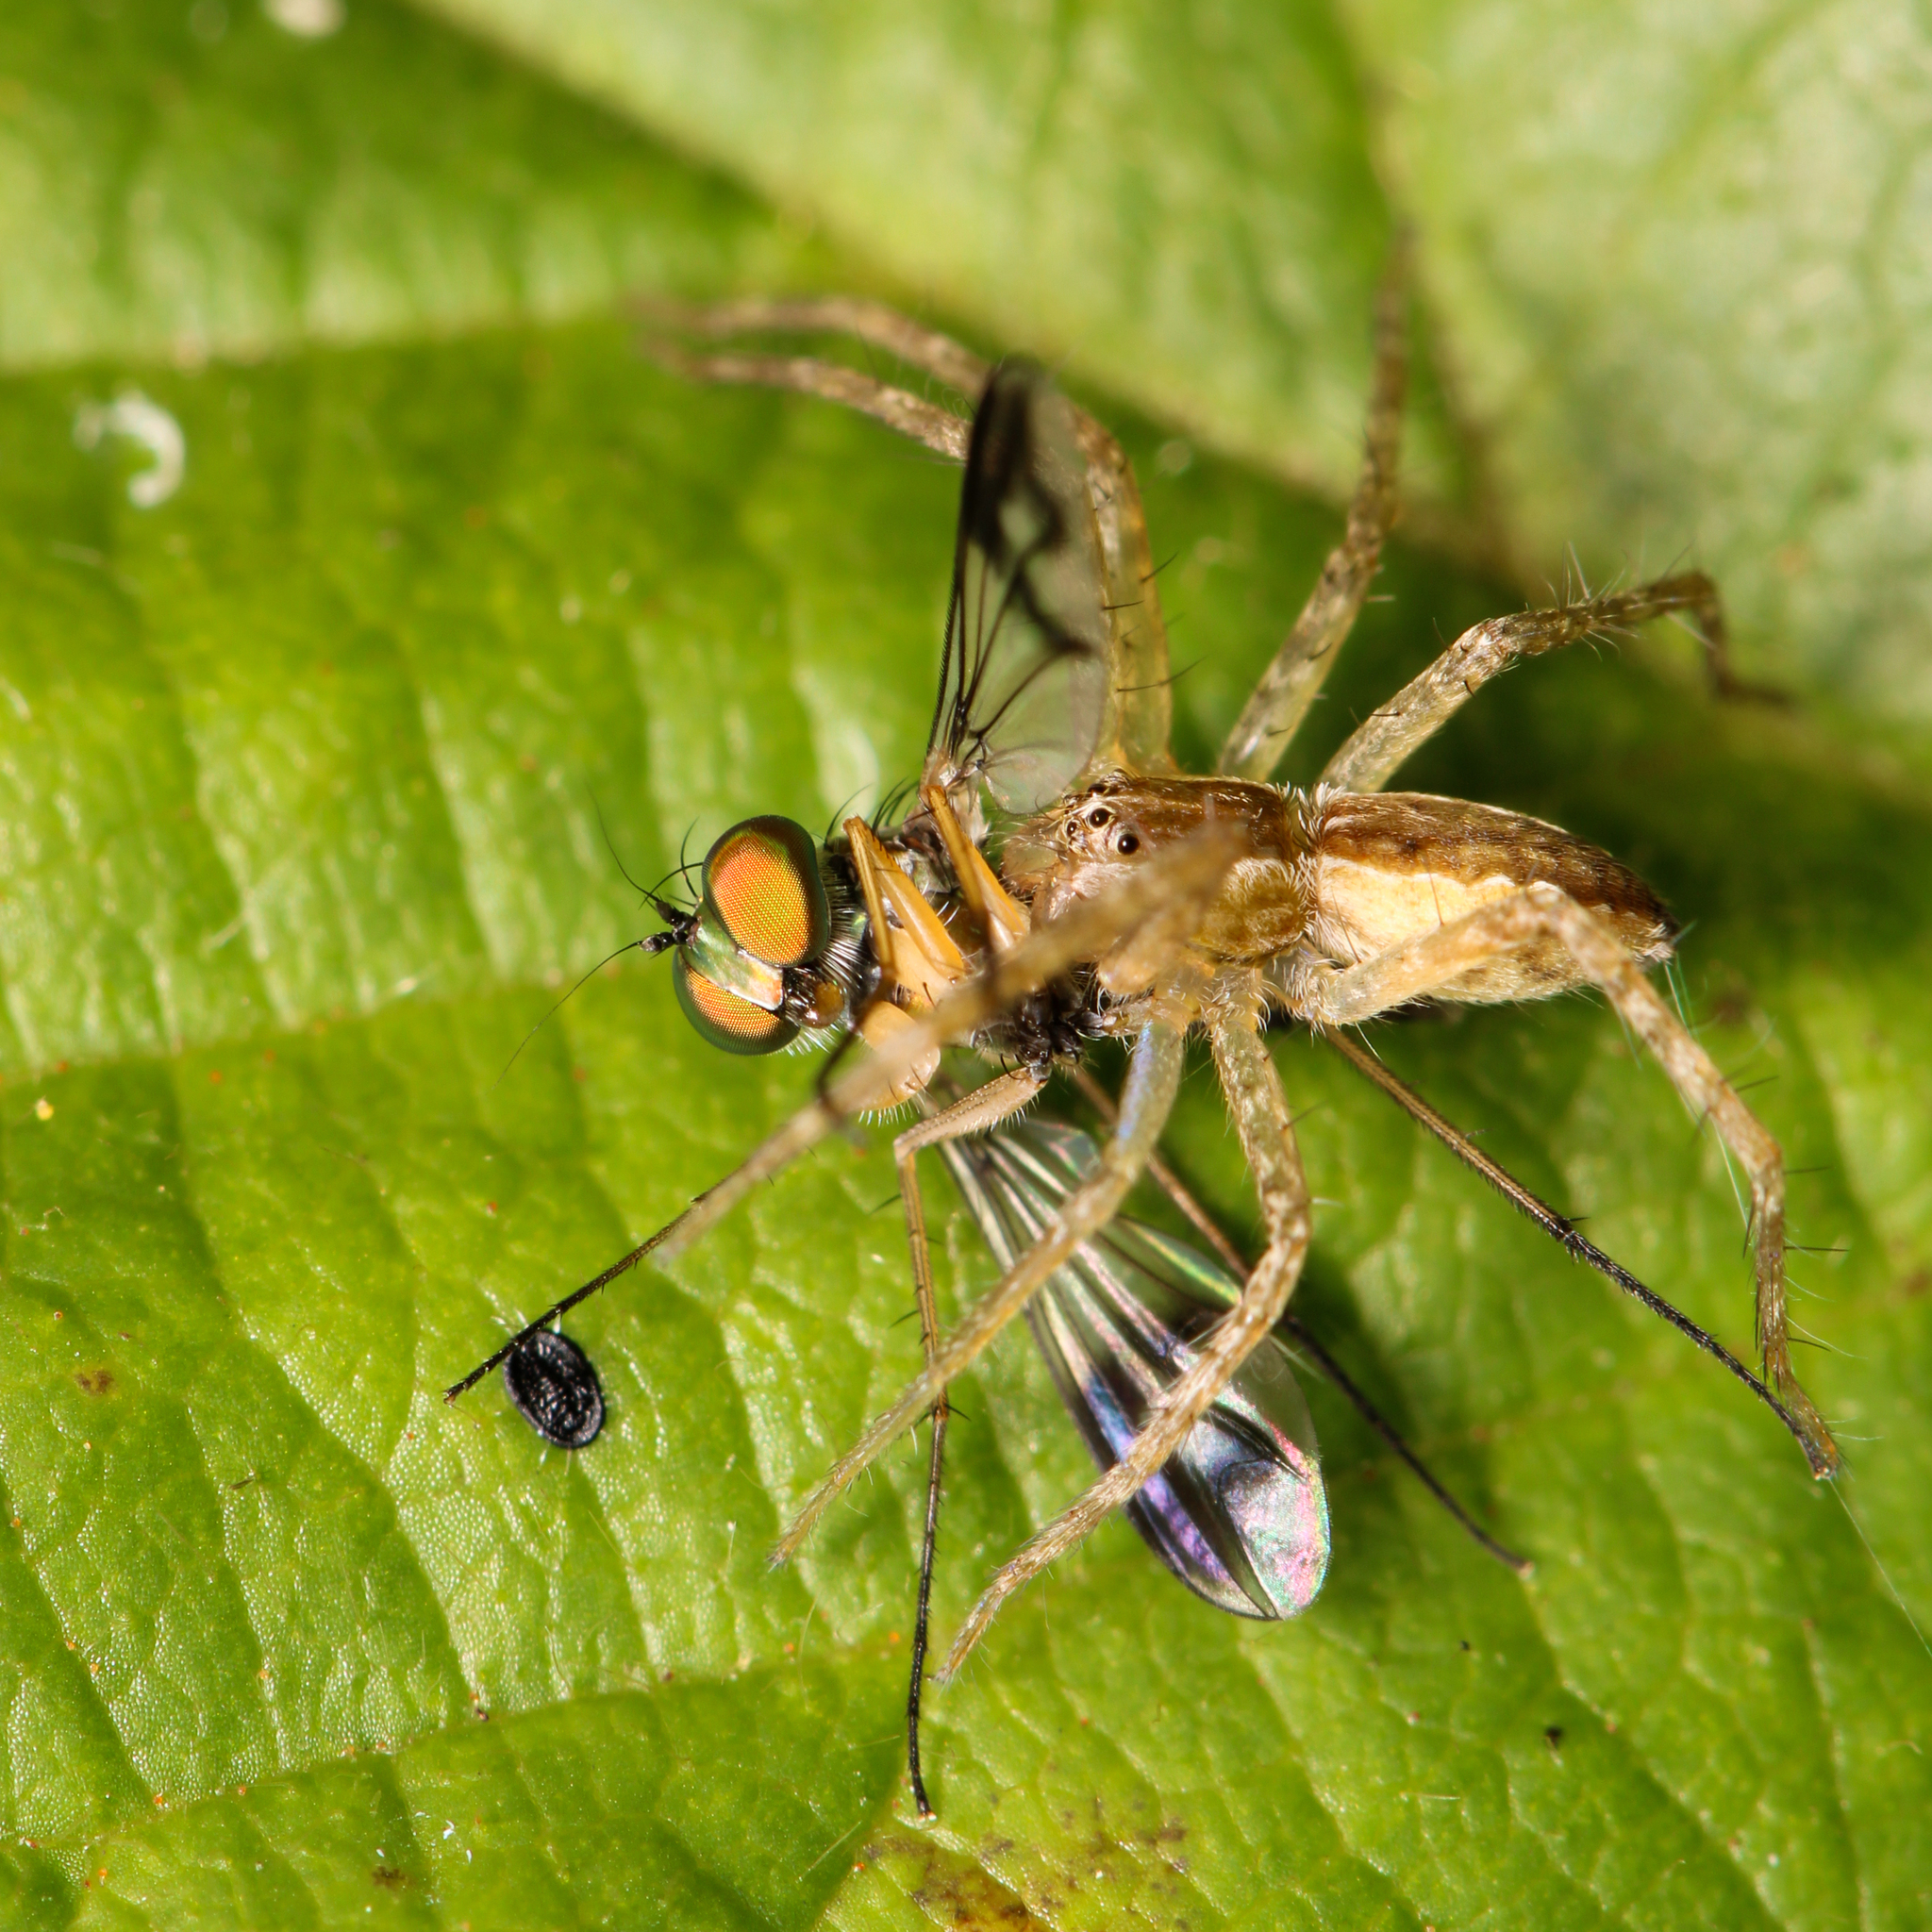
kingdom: Animalia
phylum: Arthropoda
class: Arachnida
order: Araneae
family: Pisauridae
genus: Pisaurina
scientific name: Pisaurina mira
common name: American nursery web spider
